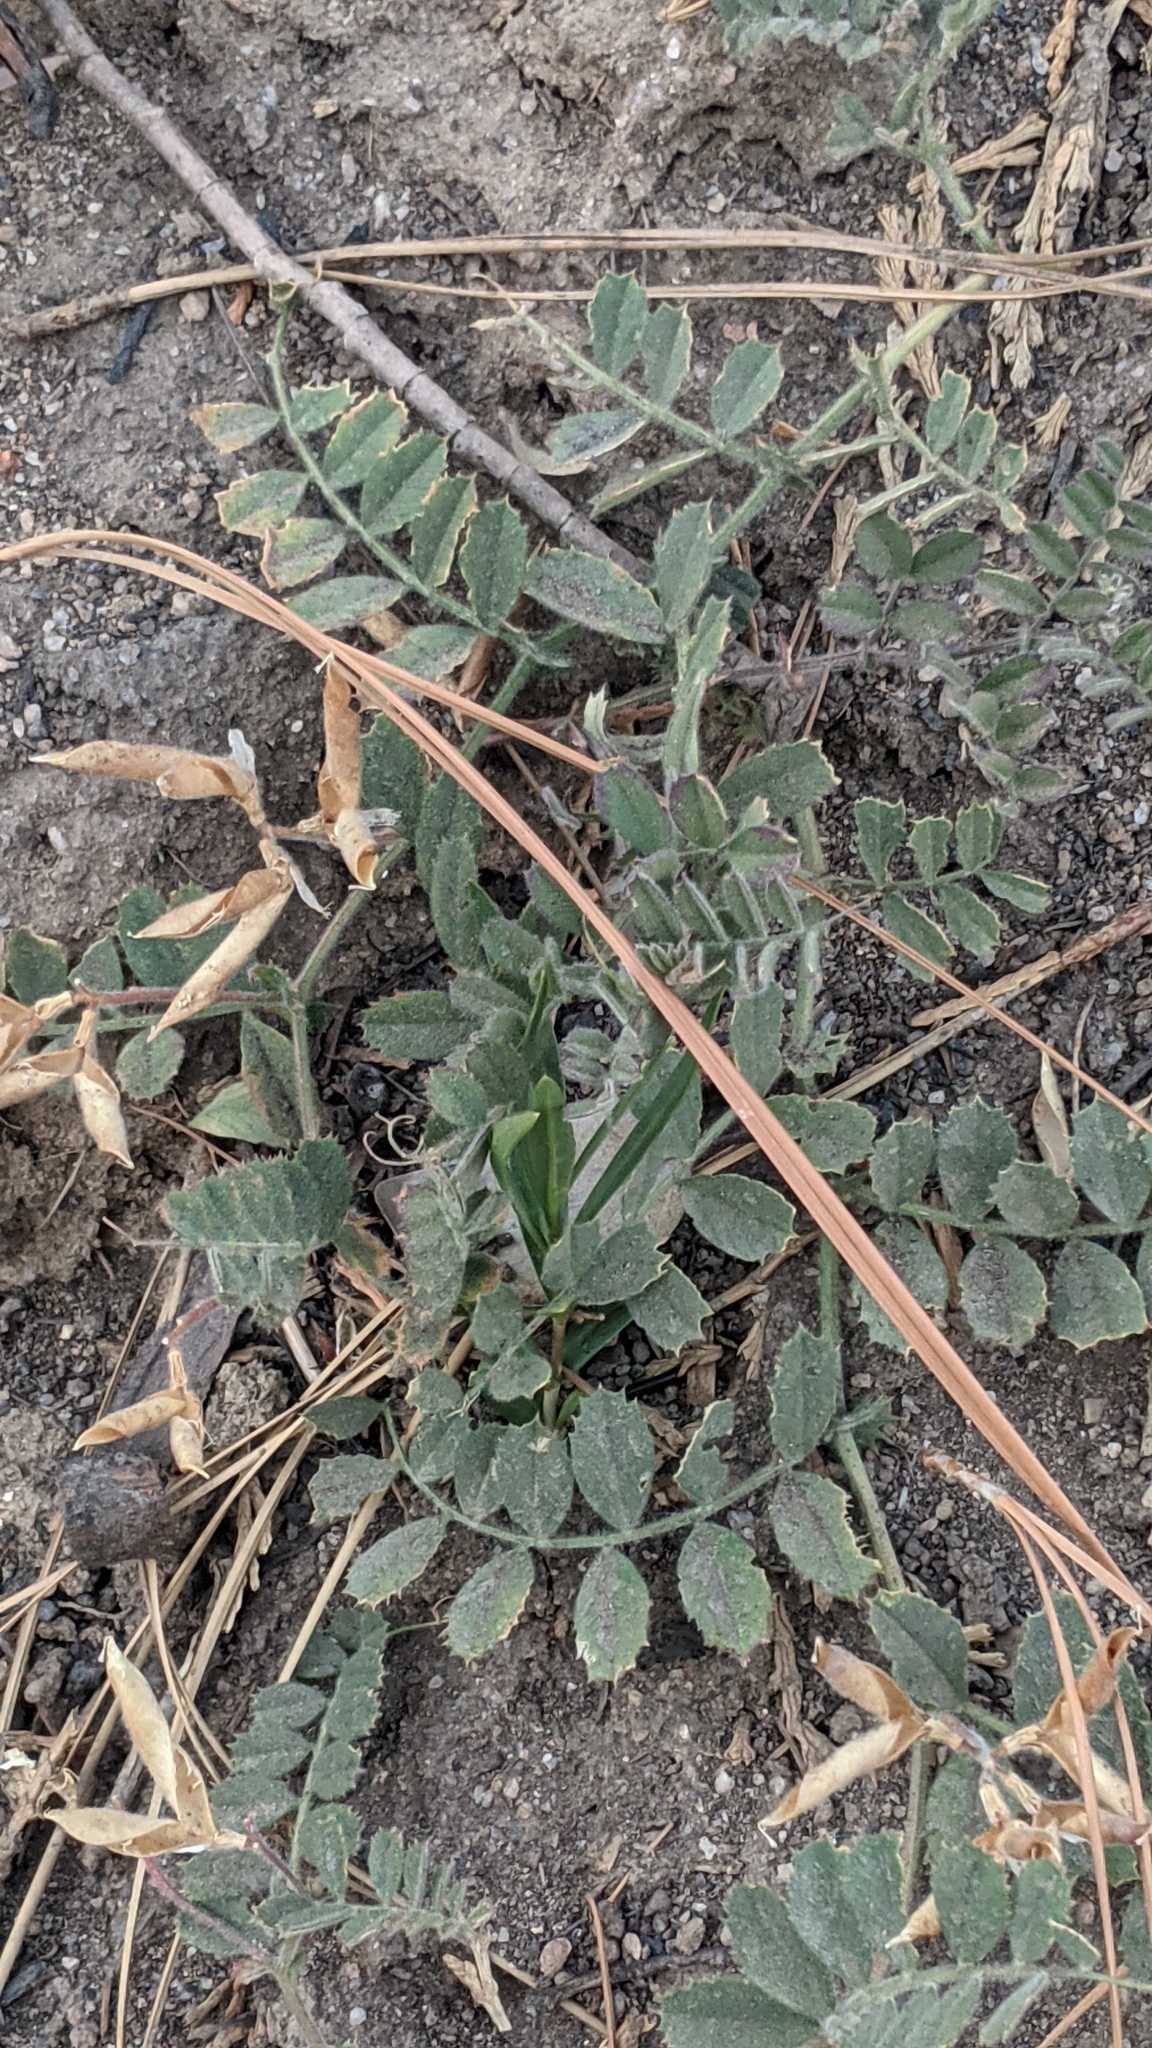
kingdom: Plantae
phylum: Tracheophyta
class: Magnoliopsida
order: Fabales
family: Fabaceae
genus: Vicia
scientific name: Vicia americana
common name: American vetch
